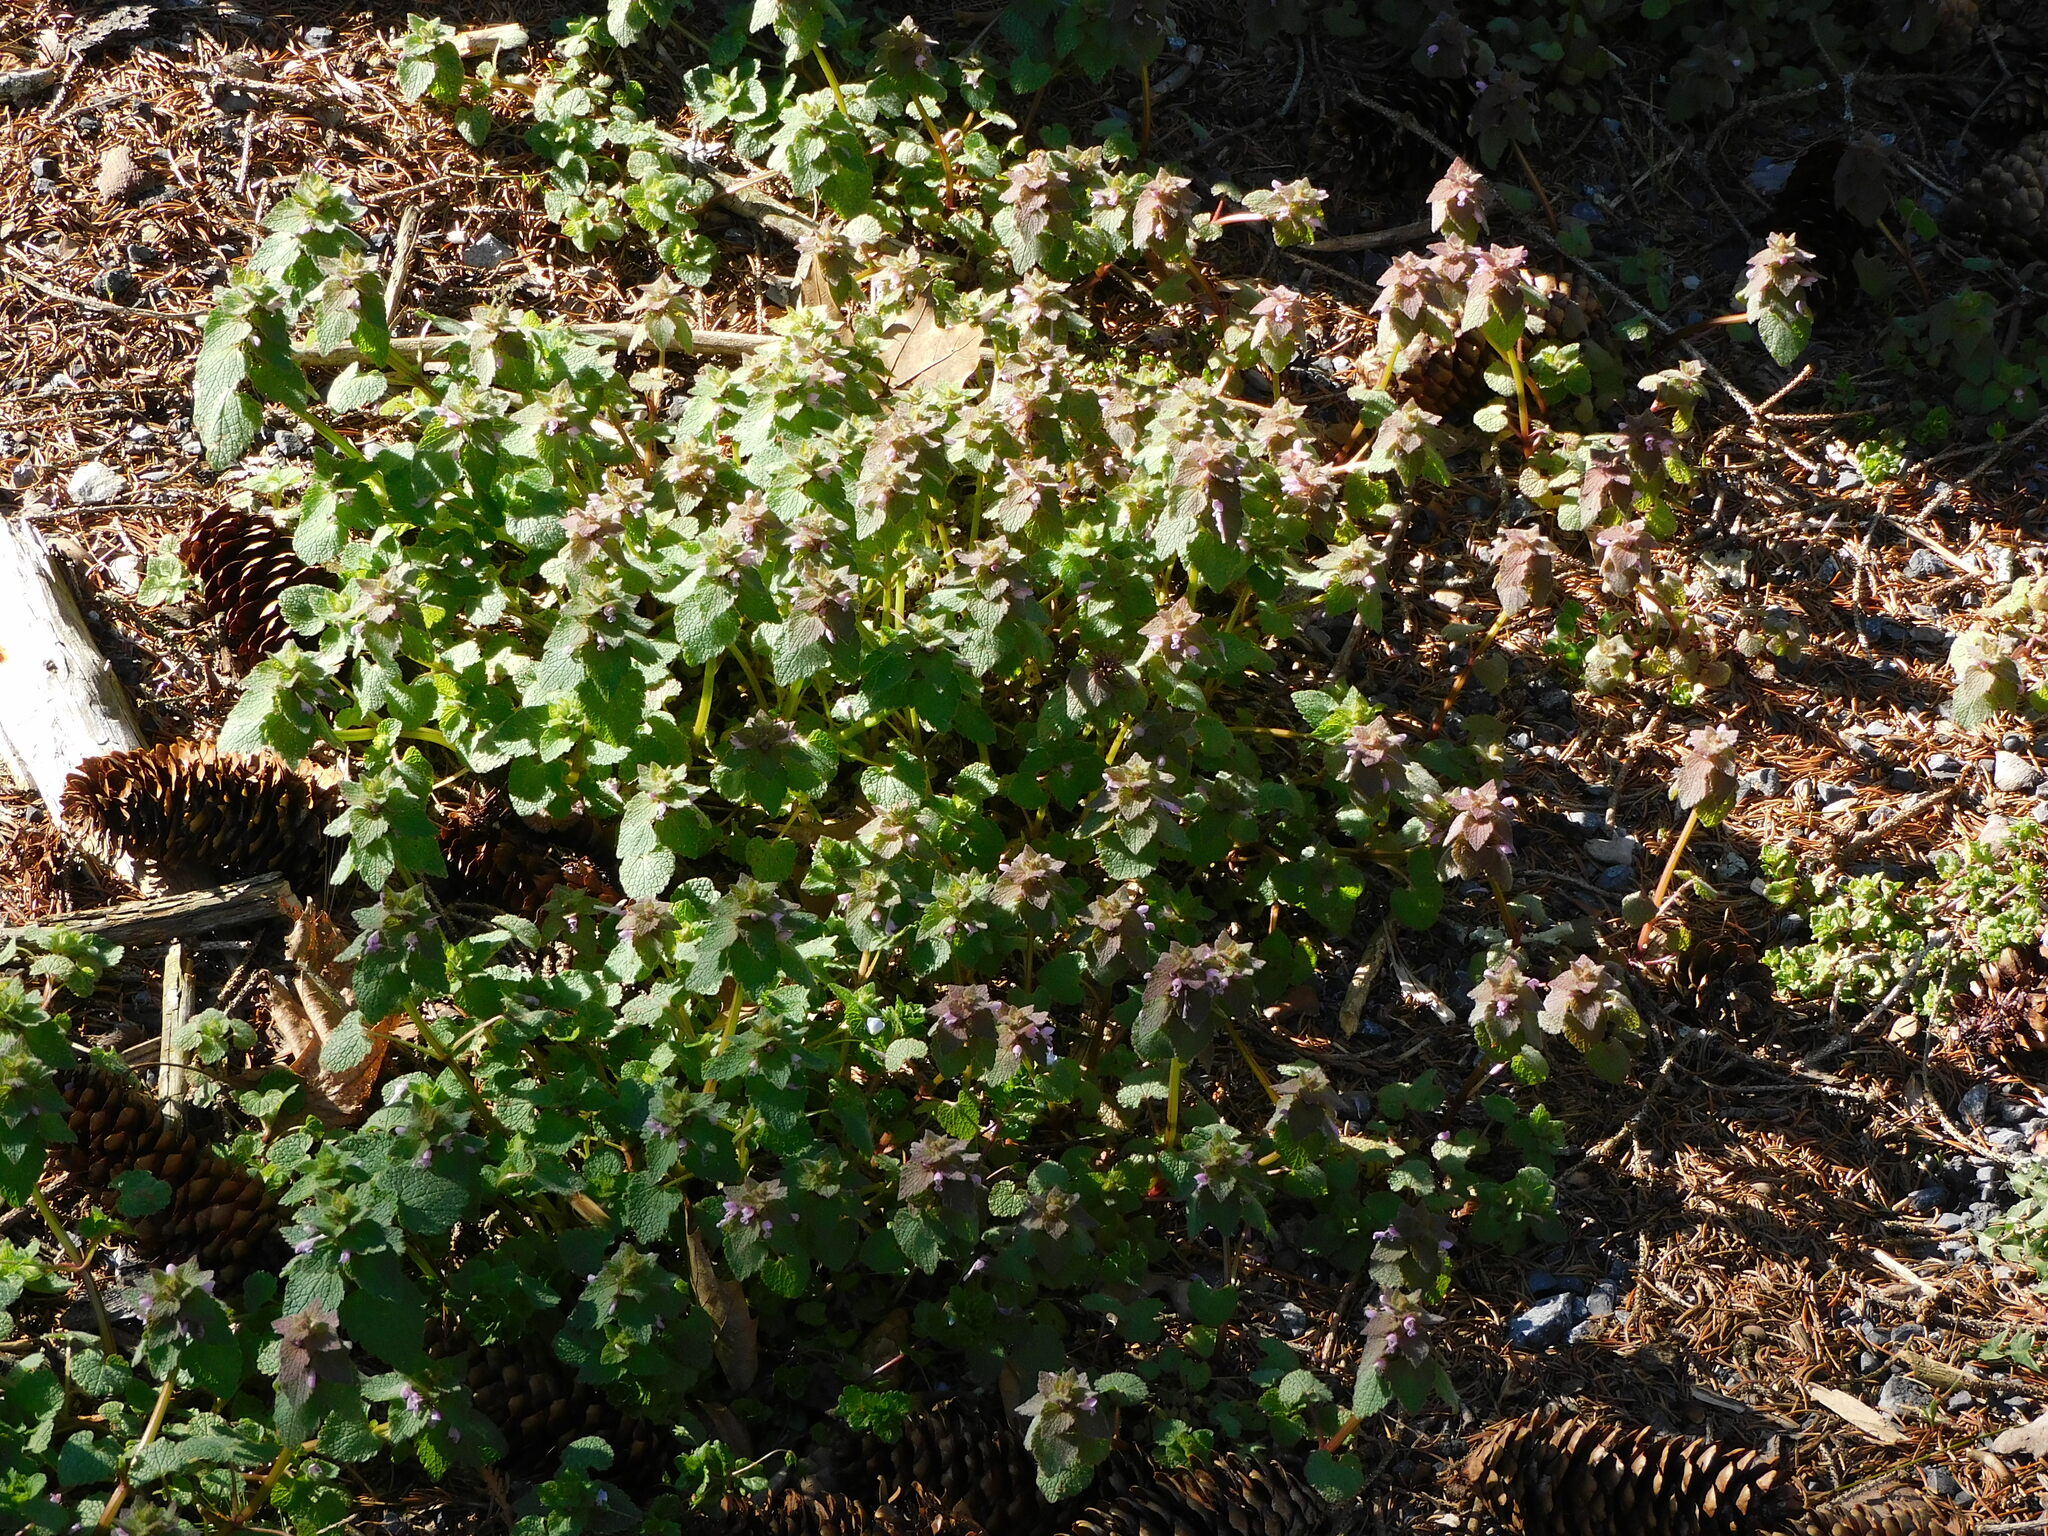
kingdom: Plantae
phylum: Tracheophyta
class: Magnoliopsida
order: Lamiales
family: Lamiaceae
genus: Lamium
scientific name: Lamium purpureum
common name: Red dead-nettle
